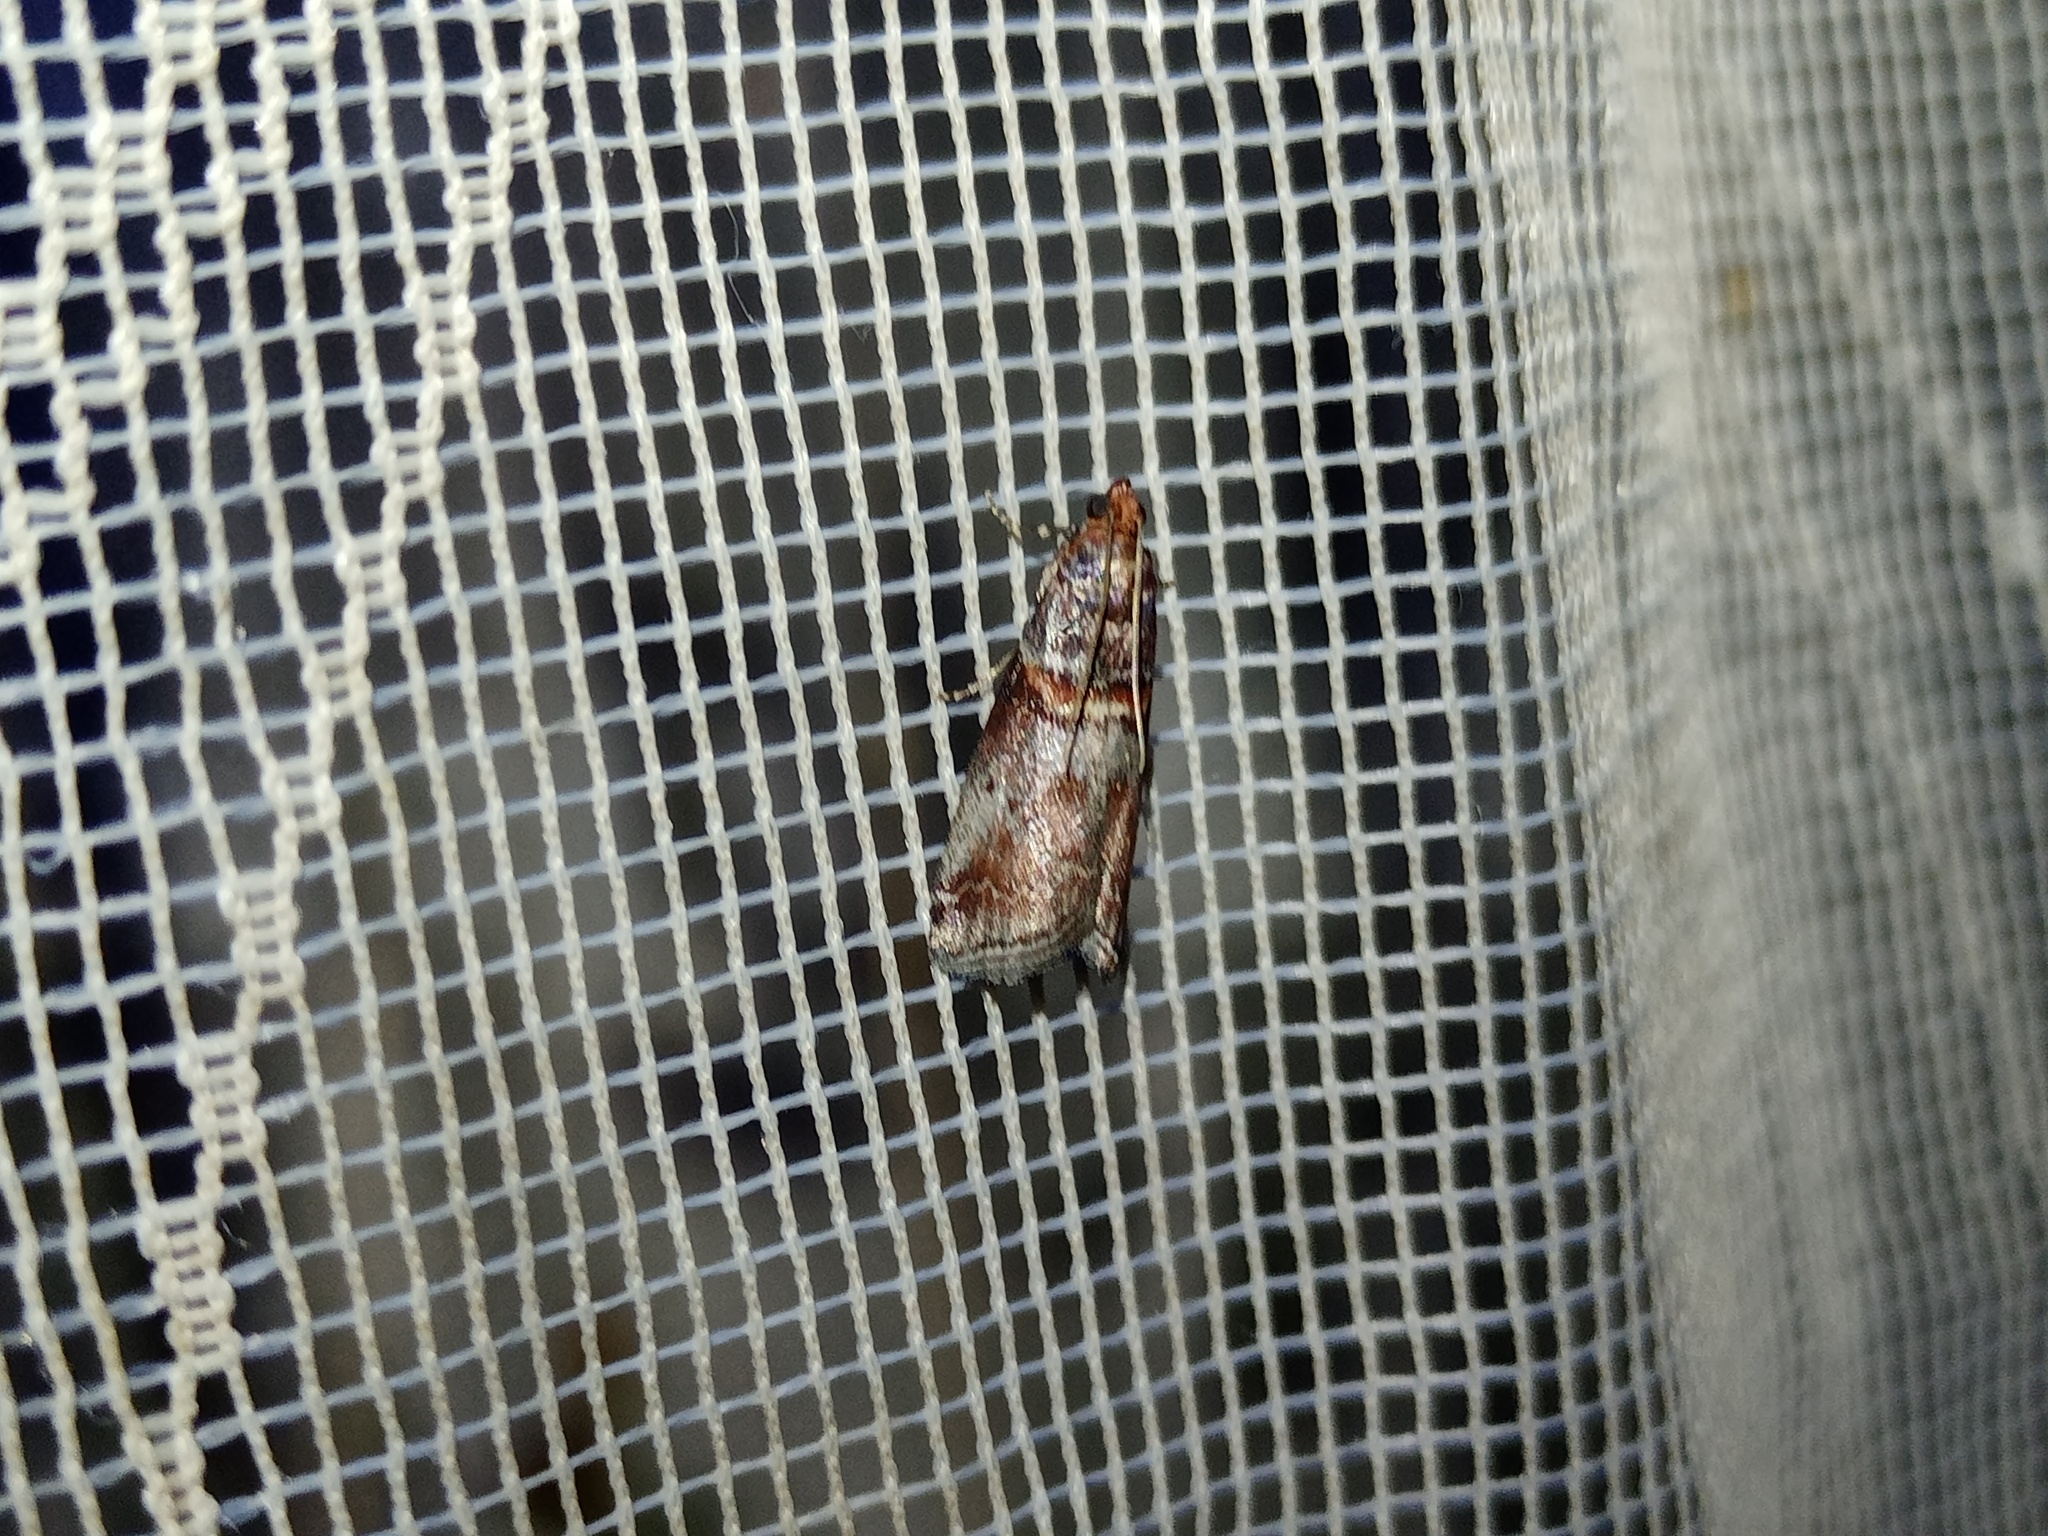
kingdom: Animalia
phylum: Arthropoda
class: Insecta
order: Lepidoptera
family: Pyralidae
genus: Acrobasis
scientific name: Acrobasis advenella
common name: Grey knot-horn
